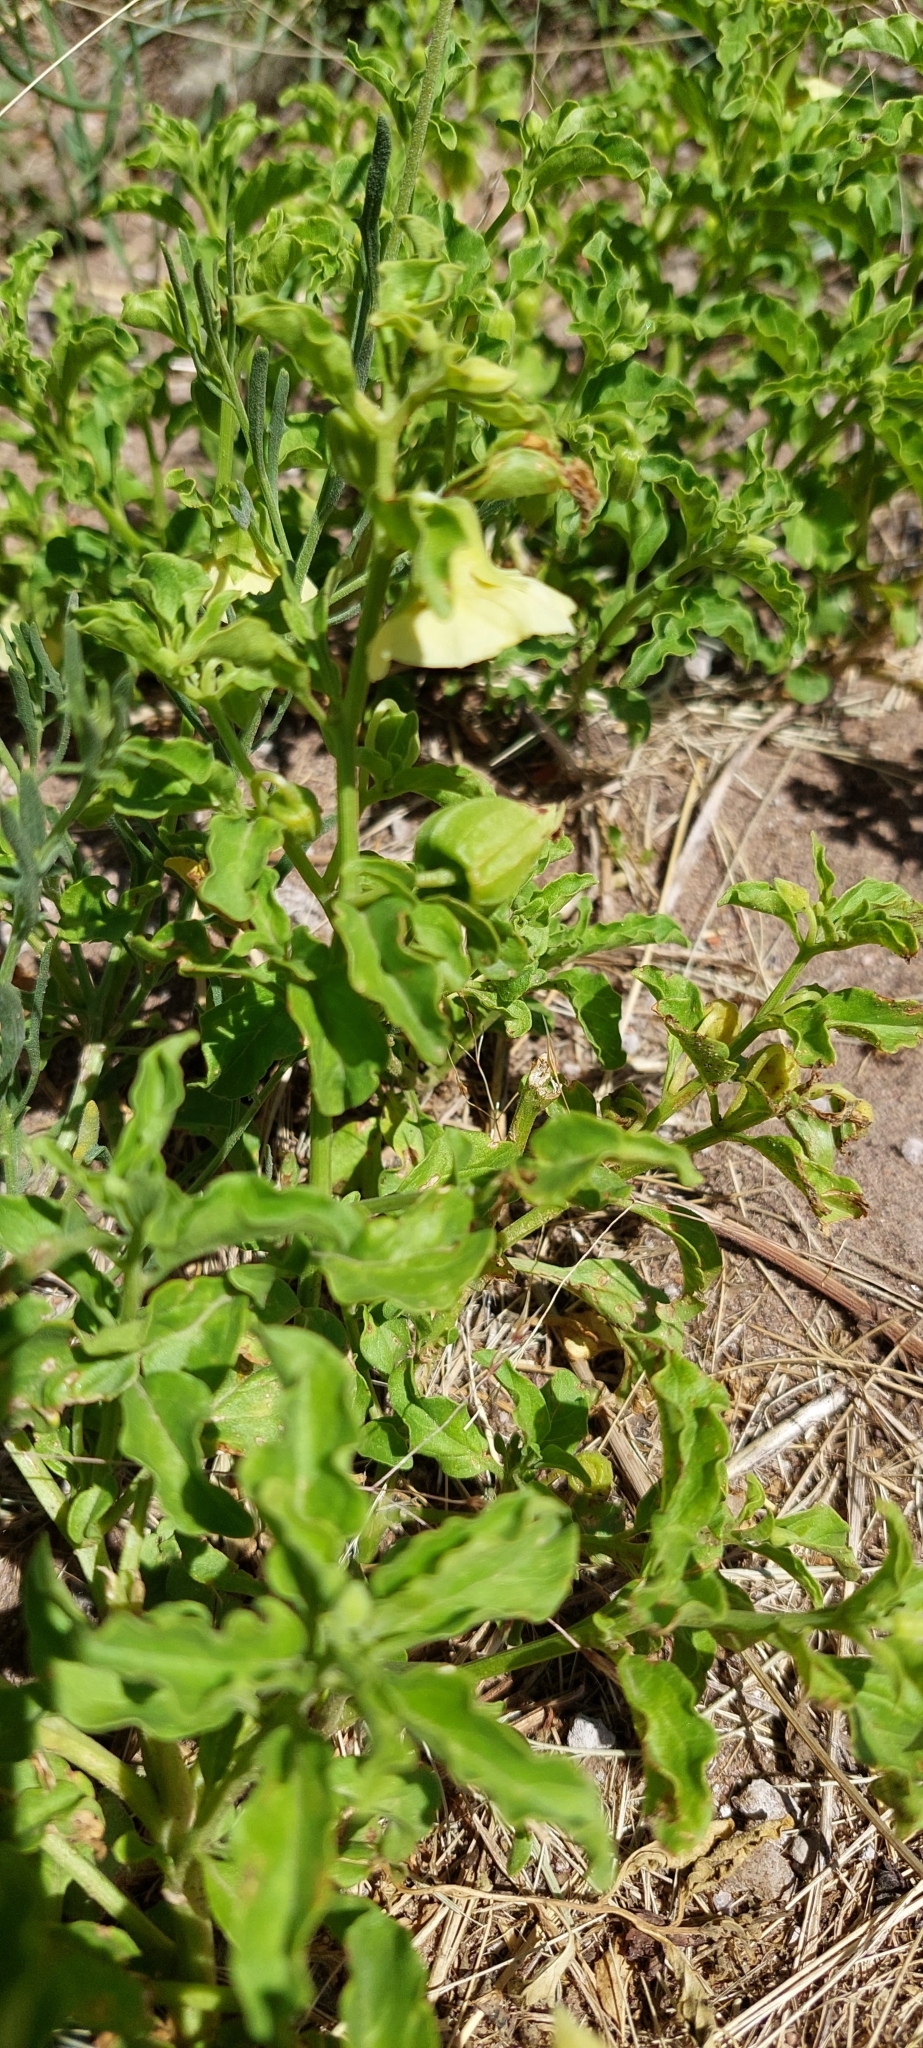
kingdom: Plantae
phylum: Tracheophyta
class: Magnoliopsida
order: Solanales
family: Solanaceae
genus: Physalis
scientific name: Physalis viscosa
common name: Stellate ground-cherry
